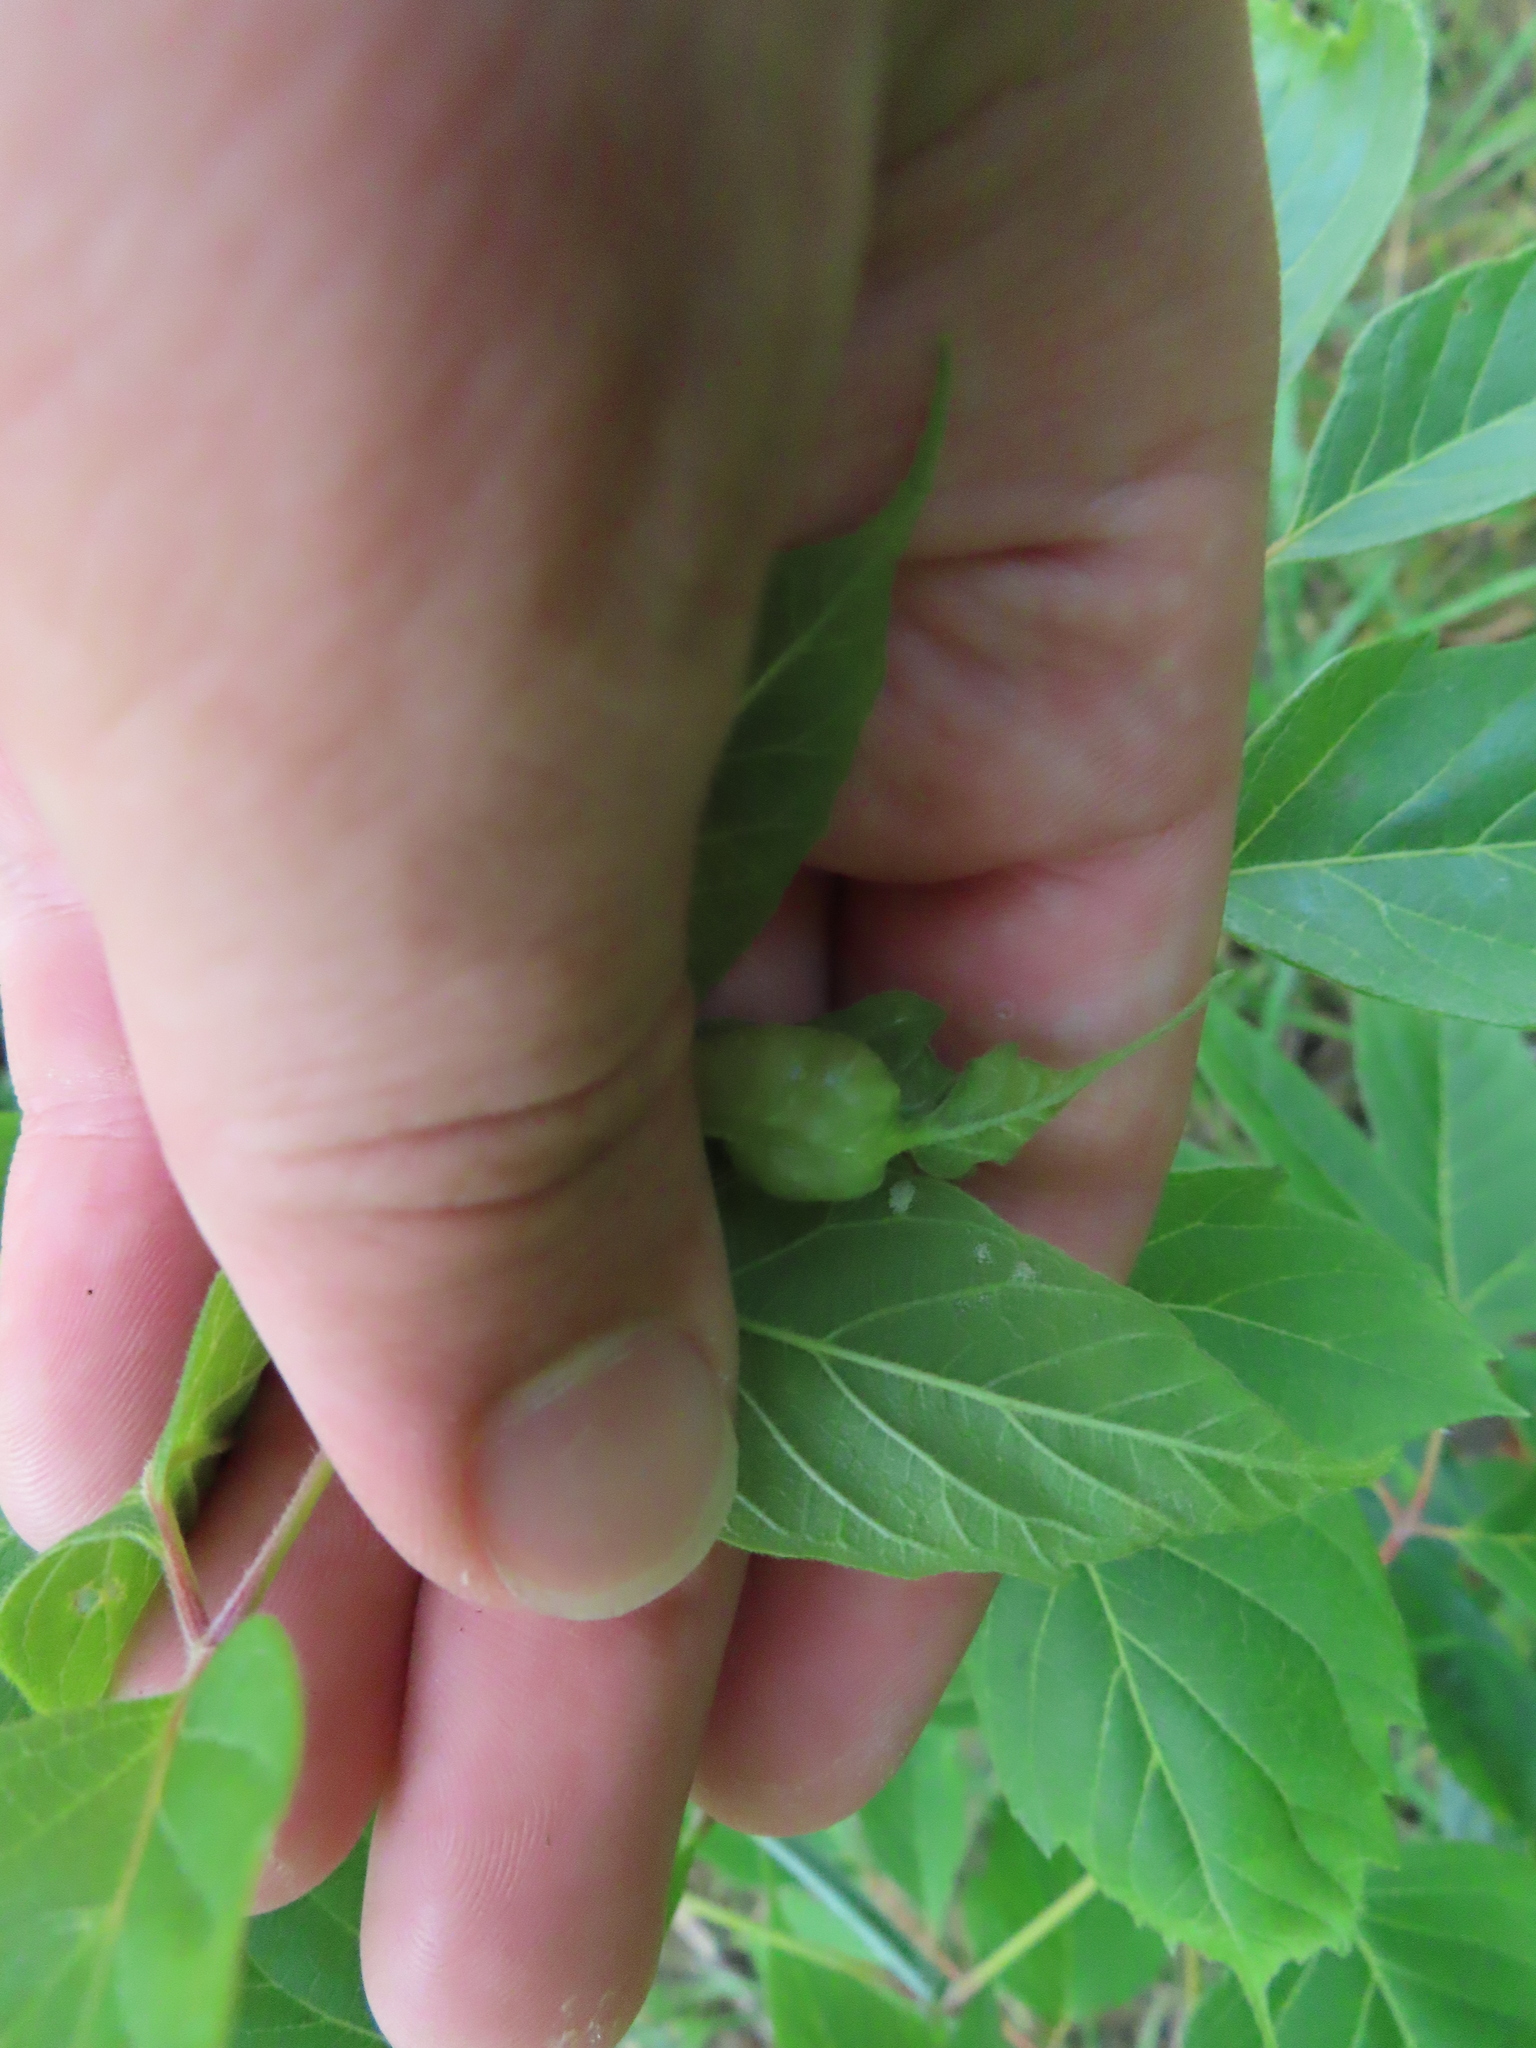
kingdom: Animalia
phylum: Arthropoda
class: Insecta
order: Diptera
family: Cecidomyiidae
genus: Contarinia
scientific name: Contarinia negundinis
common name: Boxelder budgall midge
